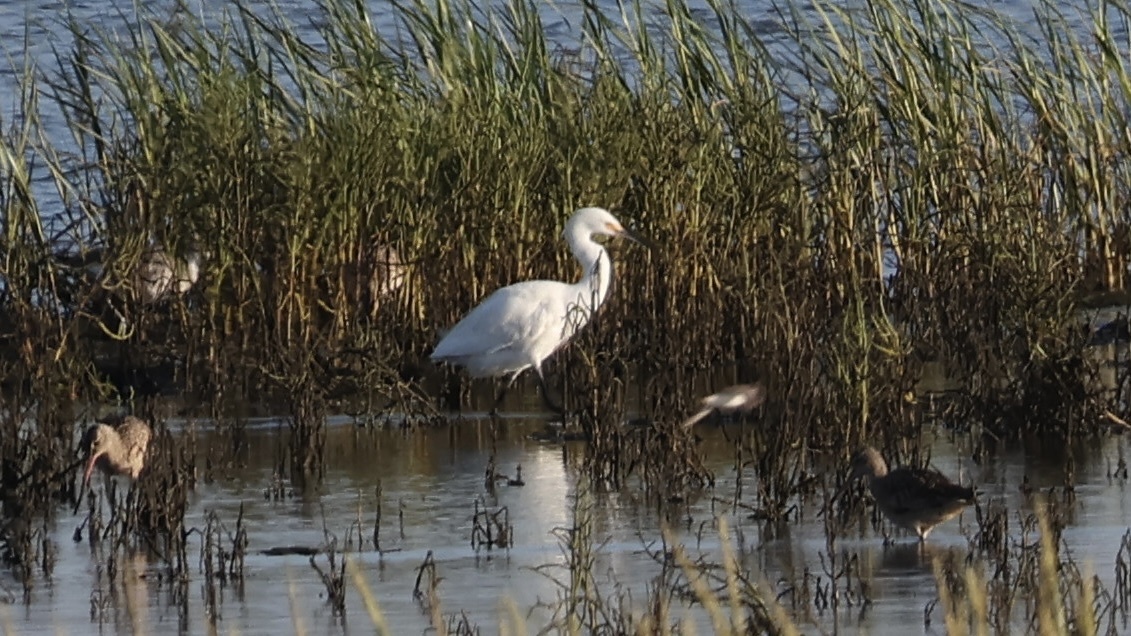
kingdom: Animalia
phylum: Chordata
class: Aves
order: Pelecaniformes
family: Ardeidae
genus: Egretta
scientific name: Egretta thula
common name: Snowy egret
